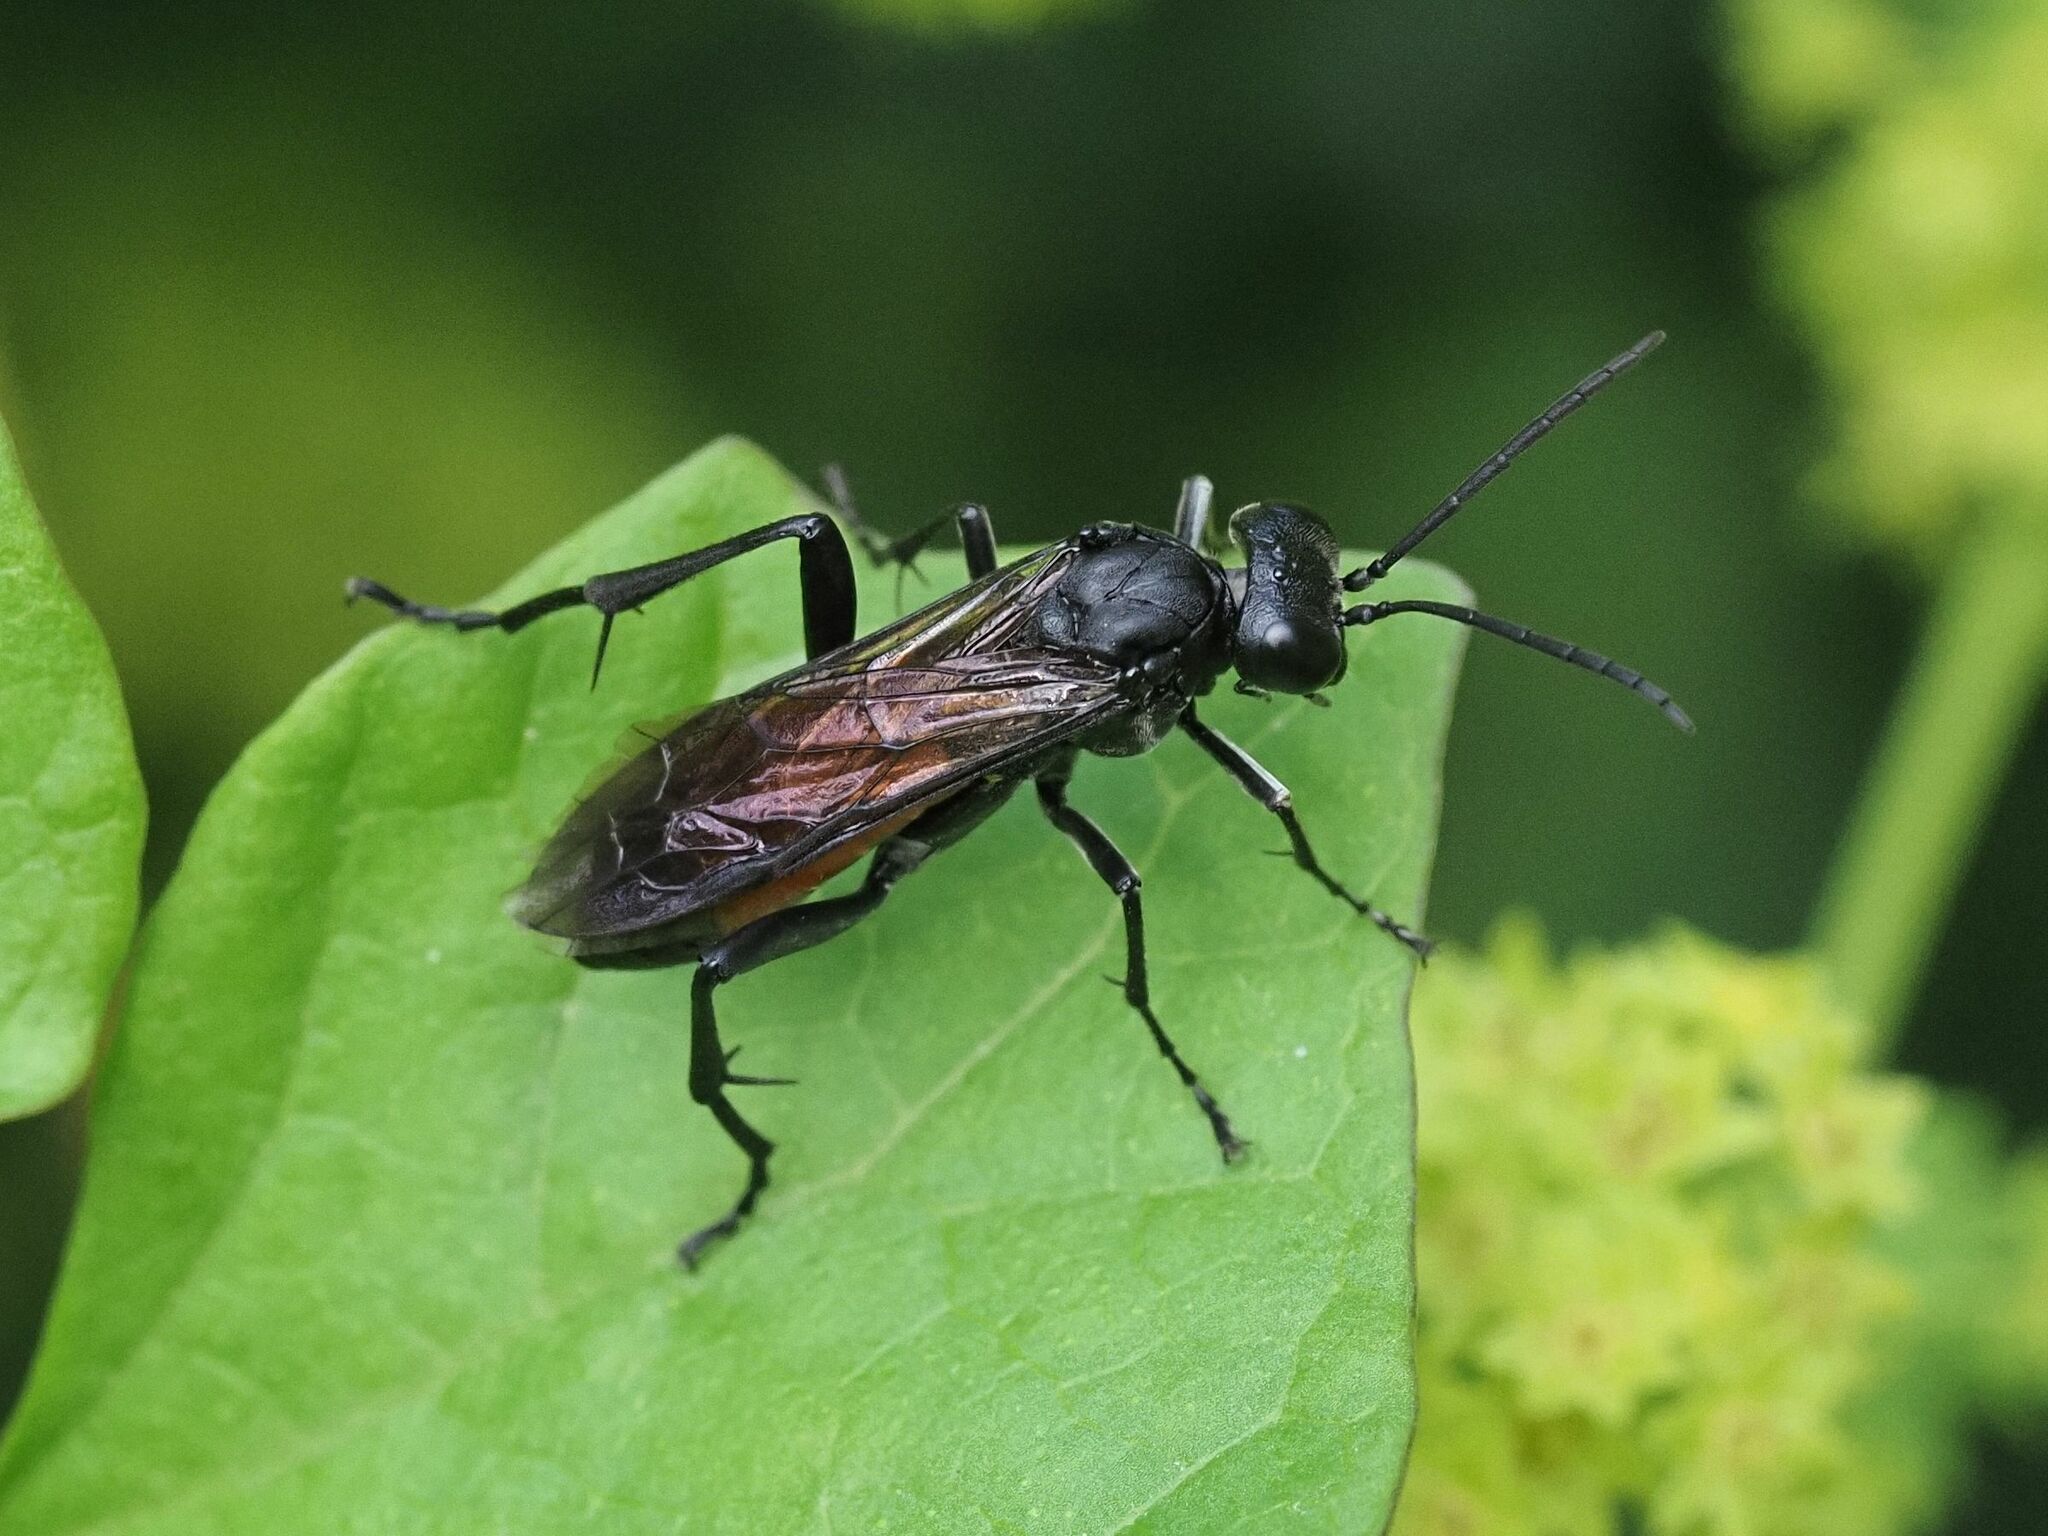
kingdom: Animalia
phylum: Arthropoda
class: Insecta
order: Hymenoptera
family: Tenthredinidae
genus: Macrophya
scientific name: Macrophya annulata
